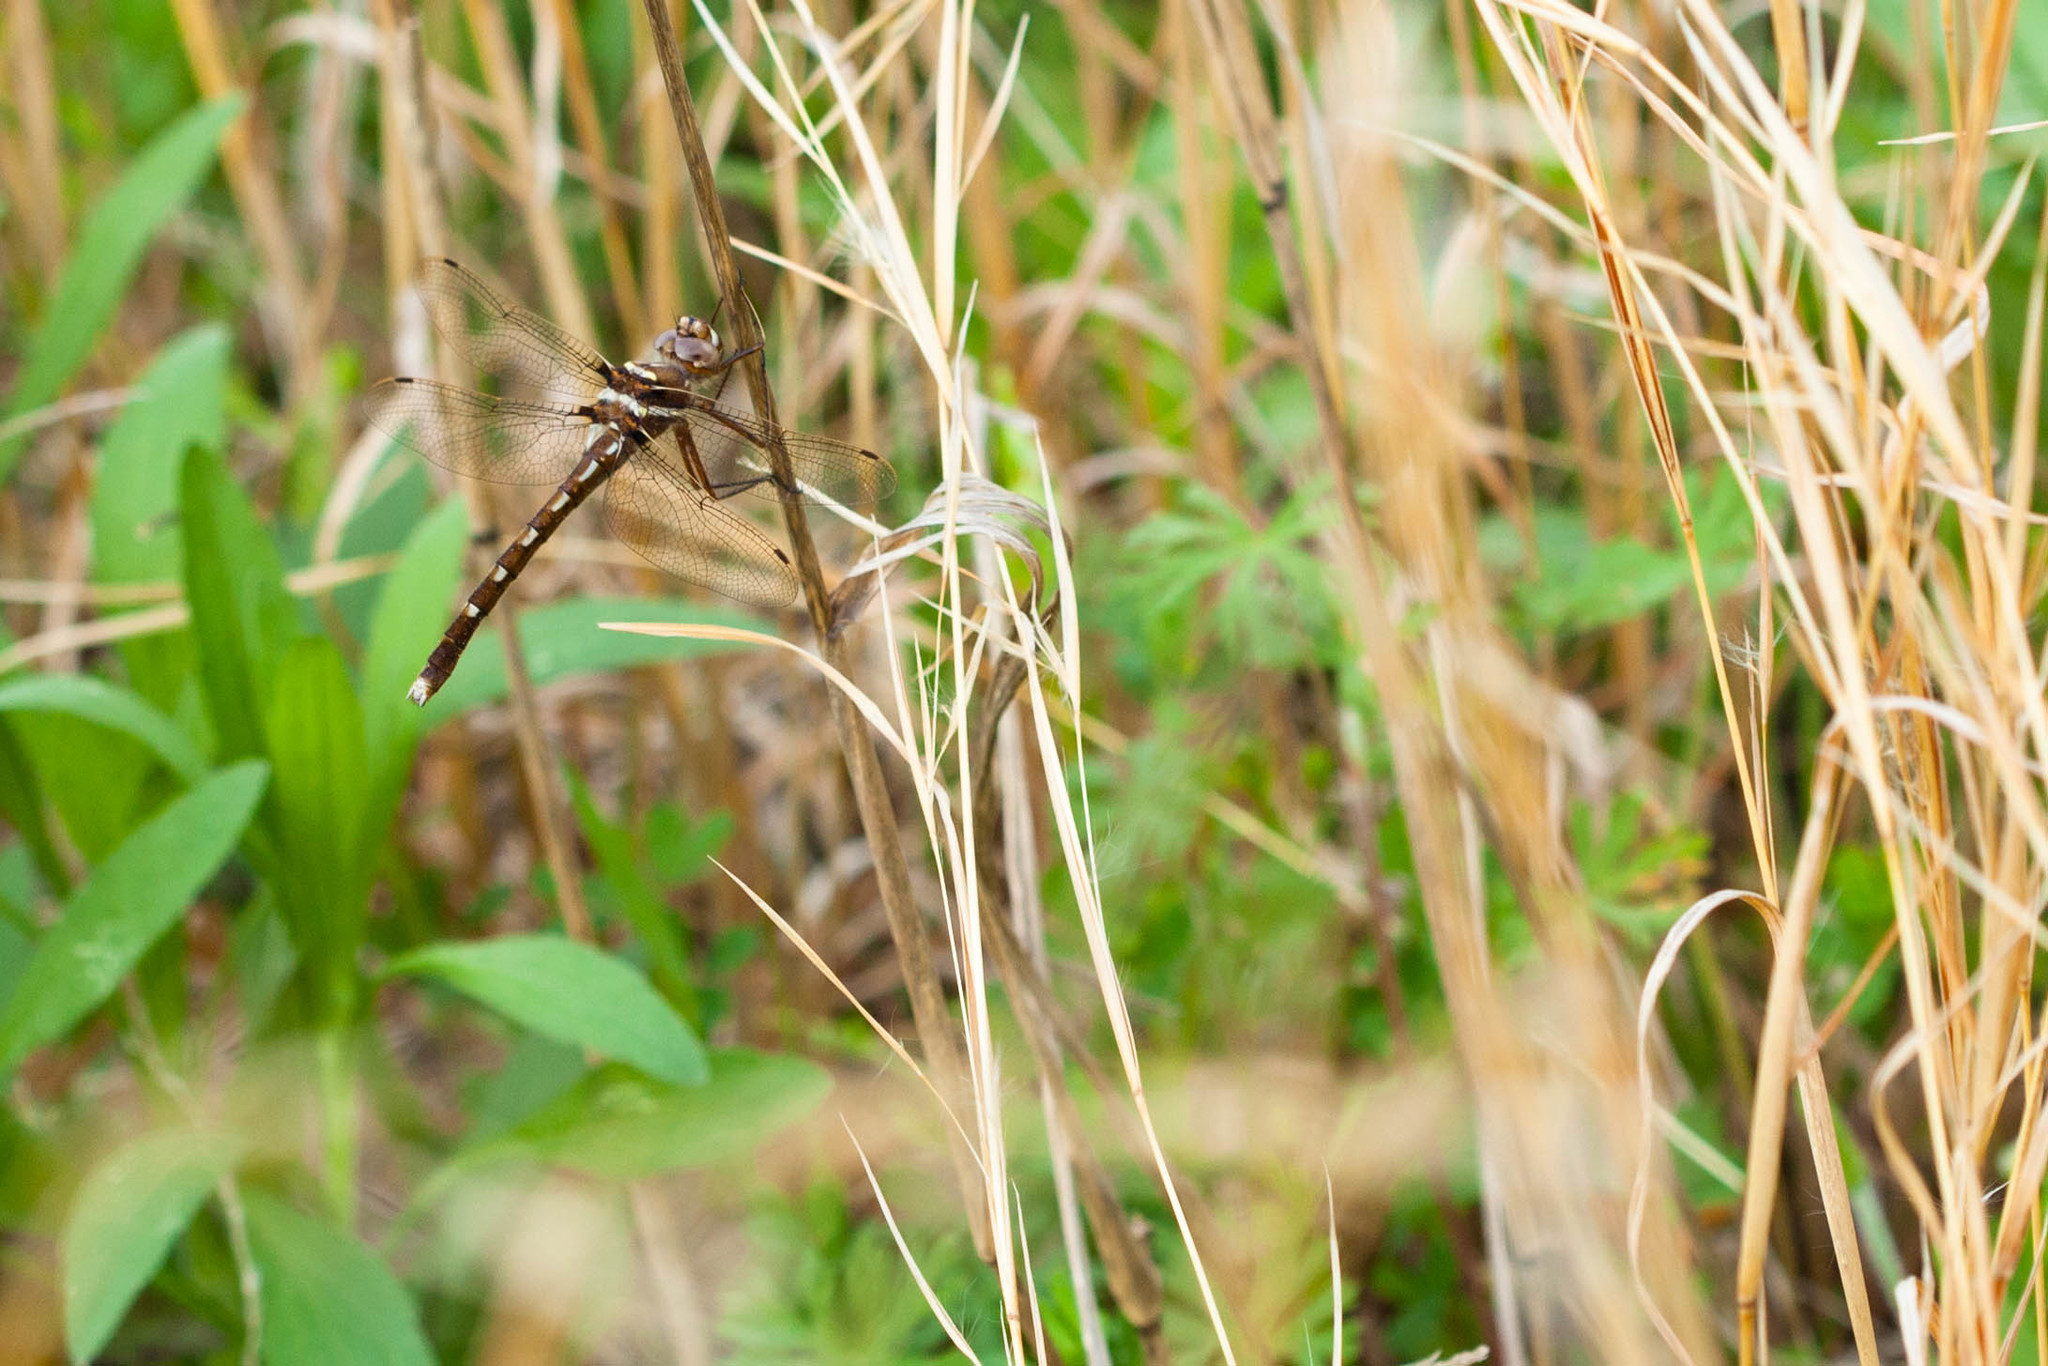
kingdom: Animalia
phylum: Arthropoda
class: Insecta
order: Odonata
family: Macromiidae
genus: Didymops
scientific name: Didymops transversa
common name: Stream cruiser
